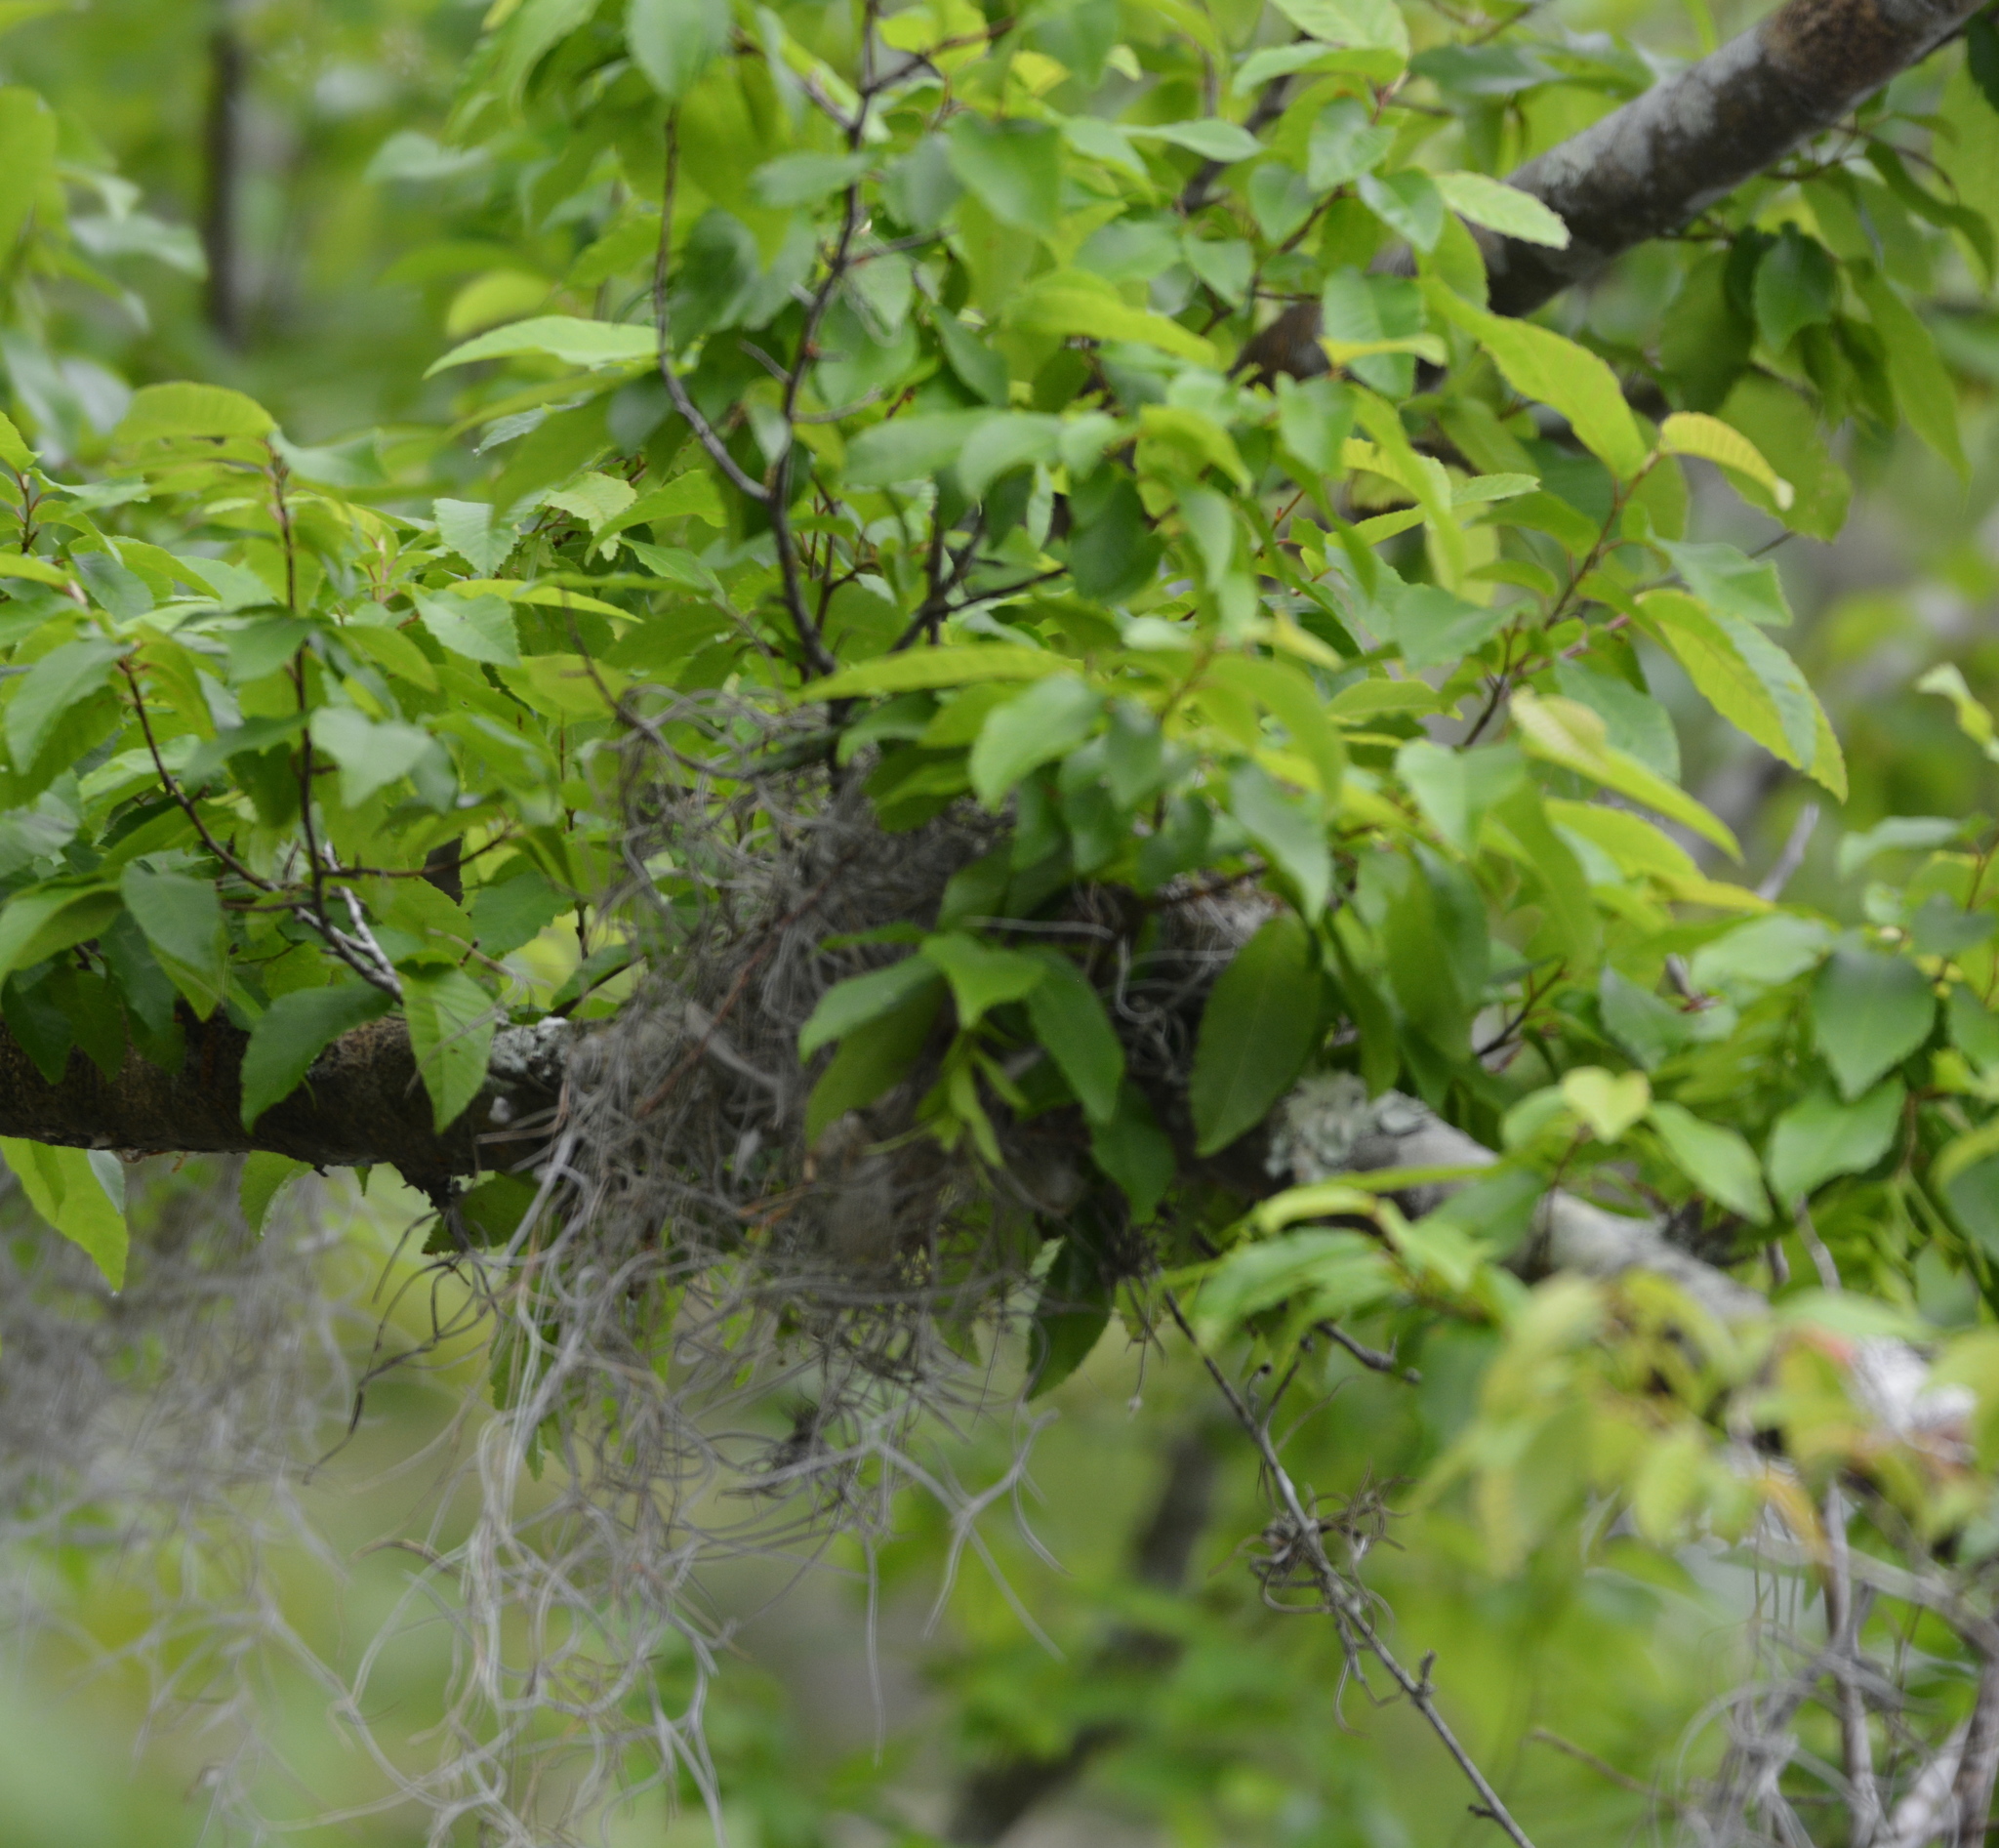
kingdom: Animalia
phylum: Chordata
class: Aves
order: Passeriformes
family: Tyrannidae
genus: Tyrannus
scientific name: Tyrannus tyrannus
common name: Eastern kingbird
